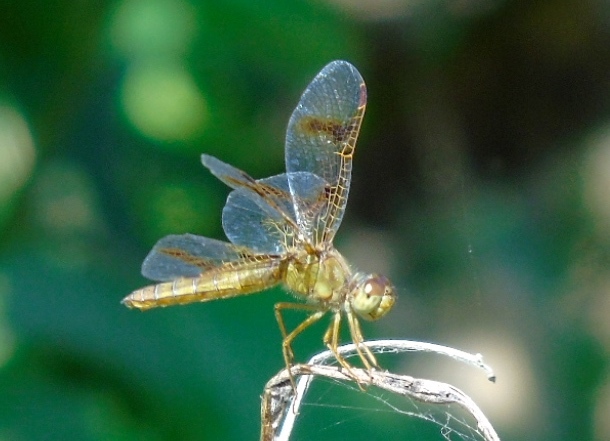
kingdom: Animalia
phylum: Arthropoda
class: Insecta
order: Odonata
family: Libellulidae
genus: Perithemis
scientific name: Perithemis
